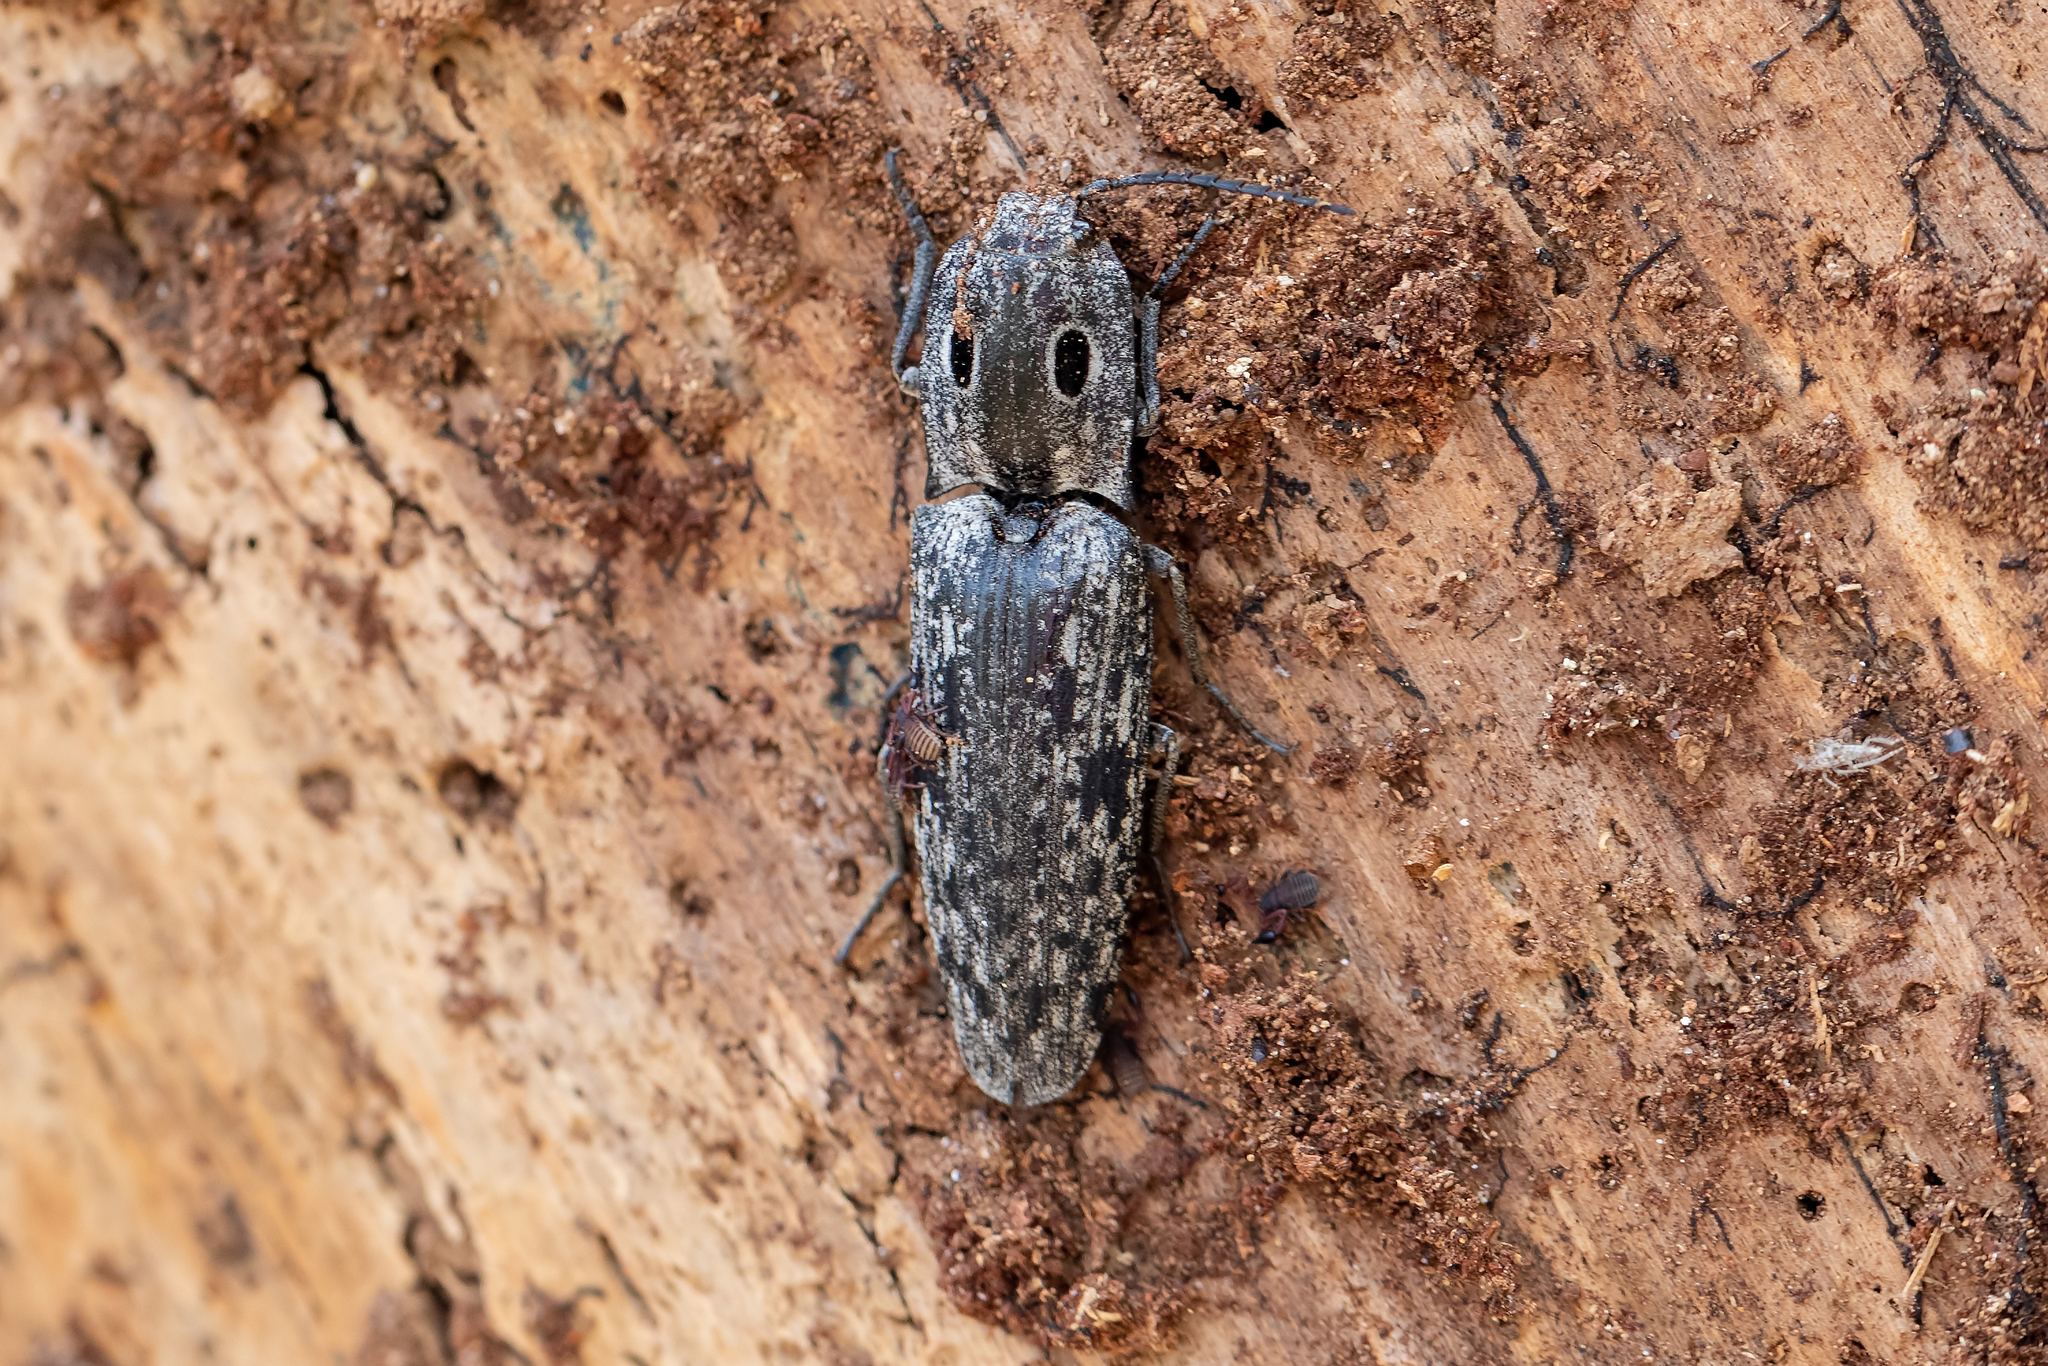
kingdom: Animalia
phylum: Arthropoda
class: Insecta
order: Coleoptera
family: Elateridae
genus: Alaus
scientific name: Alaus myops
